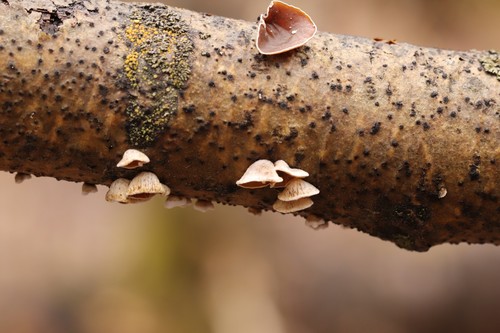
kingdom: Fungi
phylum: Basidiomycota
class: Agaricomycetes
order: Agaricales
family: Schizophyllaceae
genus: Schizophyllum
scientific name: Schizophyllum amplum
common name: Poplar bells
